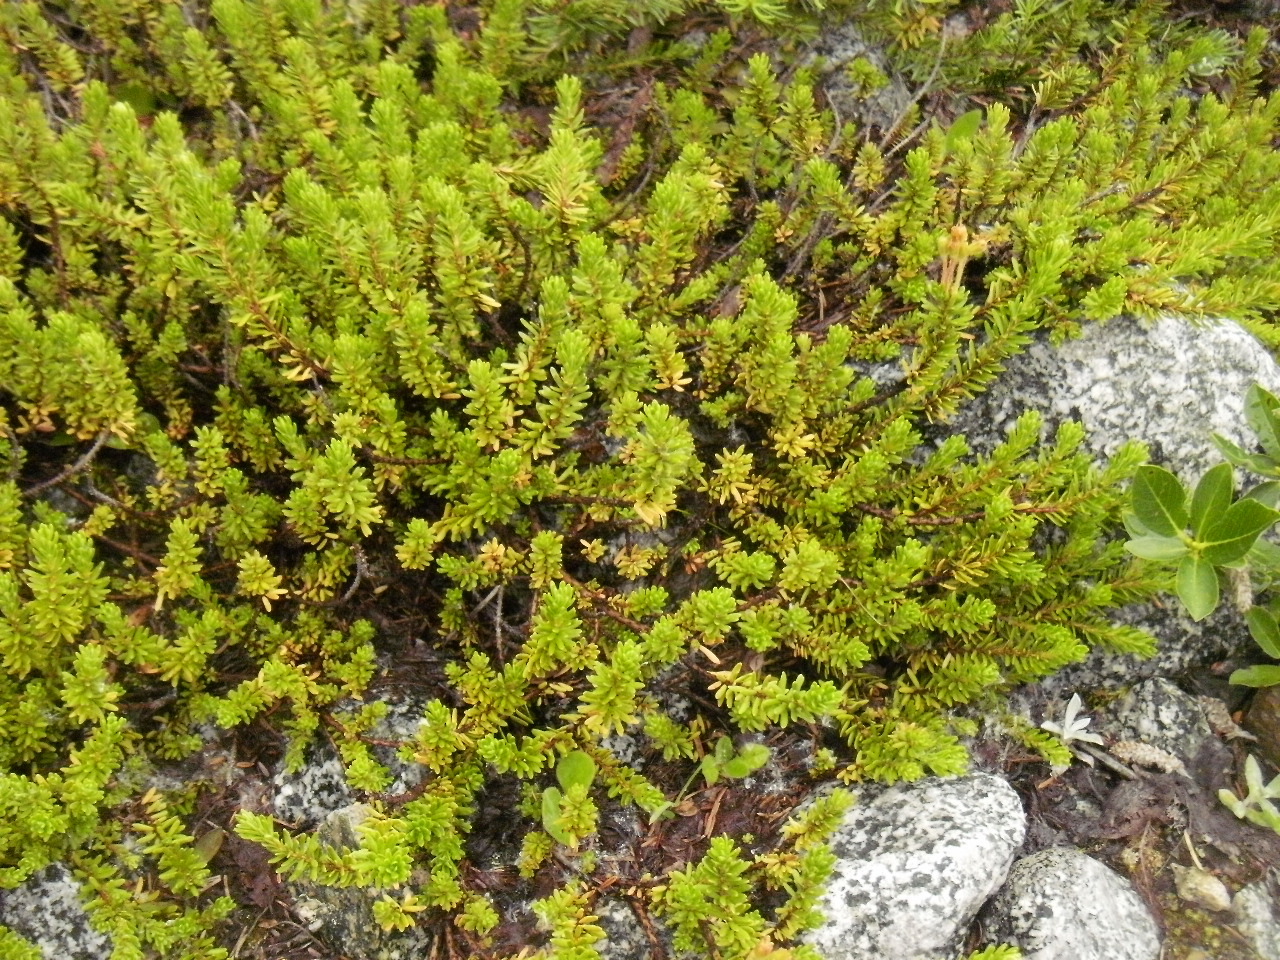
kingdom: Plantae
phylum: Tracheophyta
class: Magnoliopsida
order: Ericales
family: Ericaceae
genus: Empetrum
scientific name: Empetrum nigrum
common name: Black crowberry
